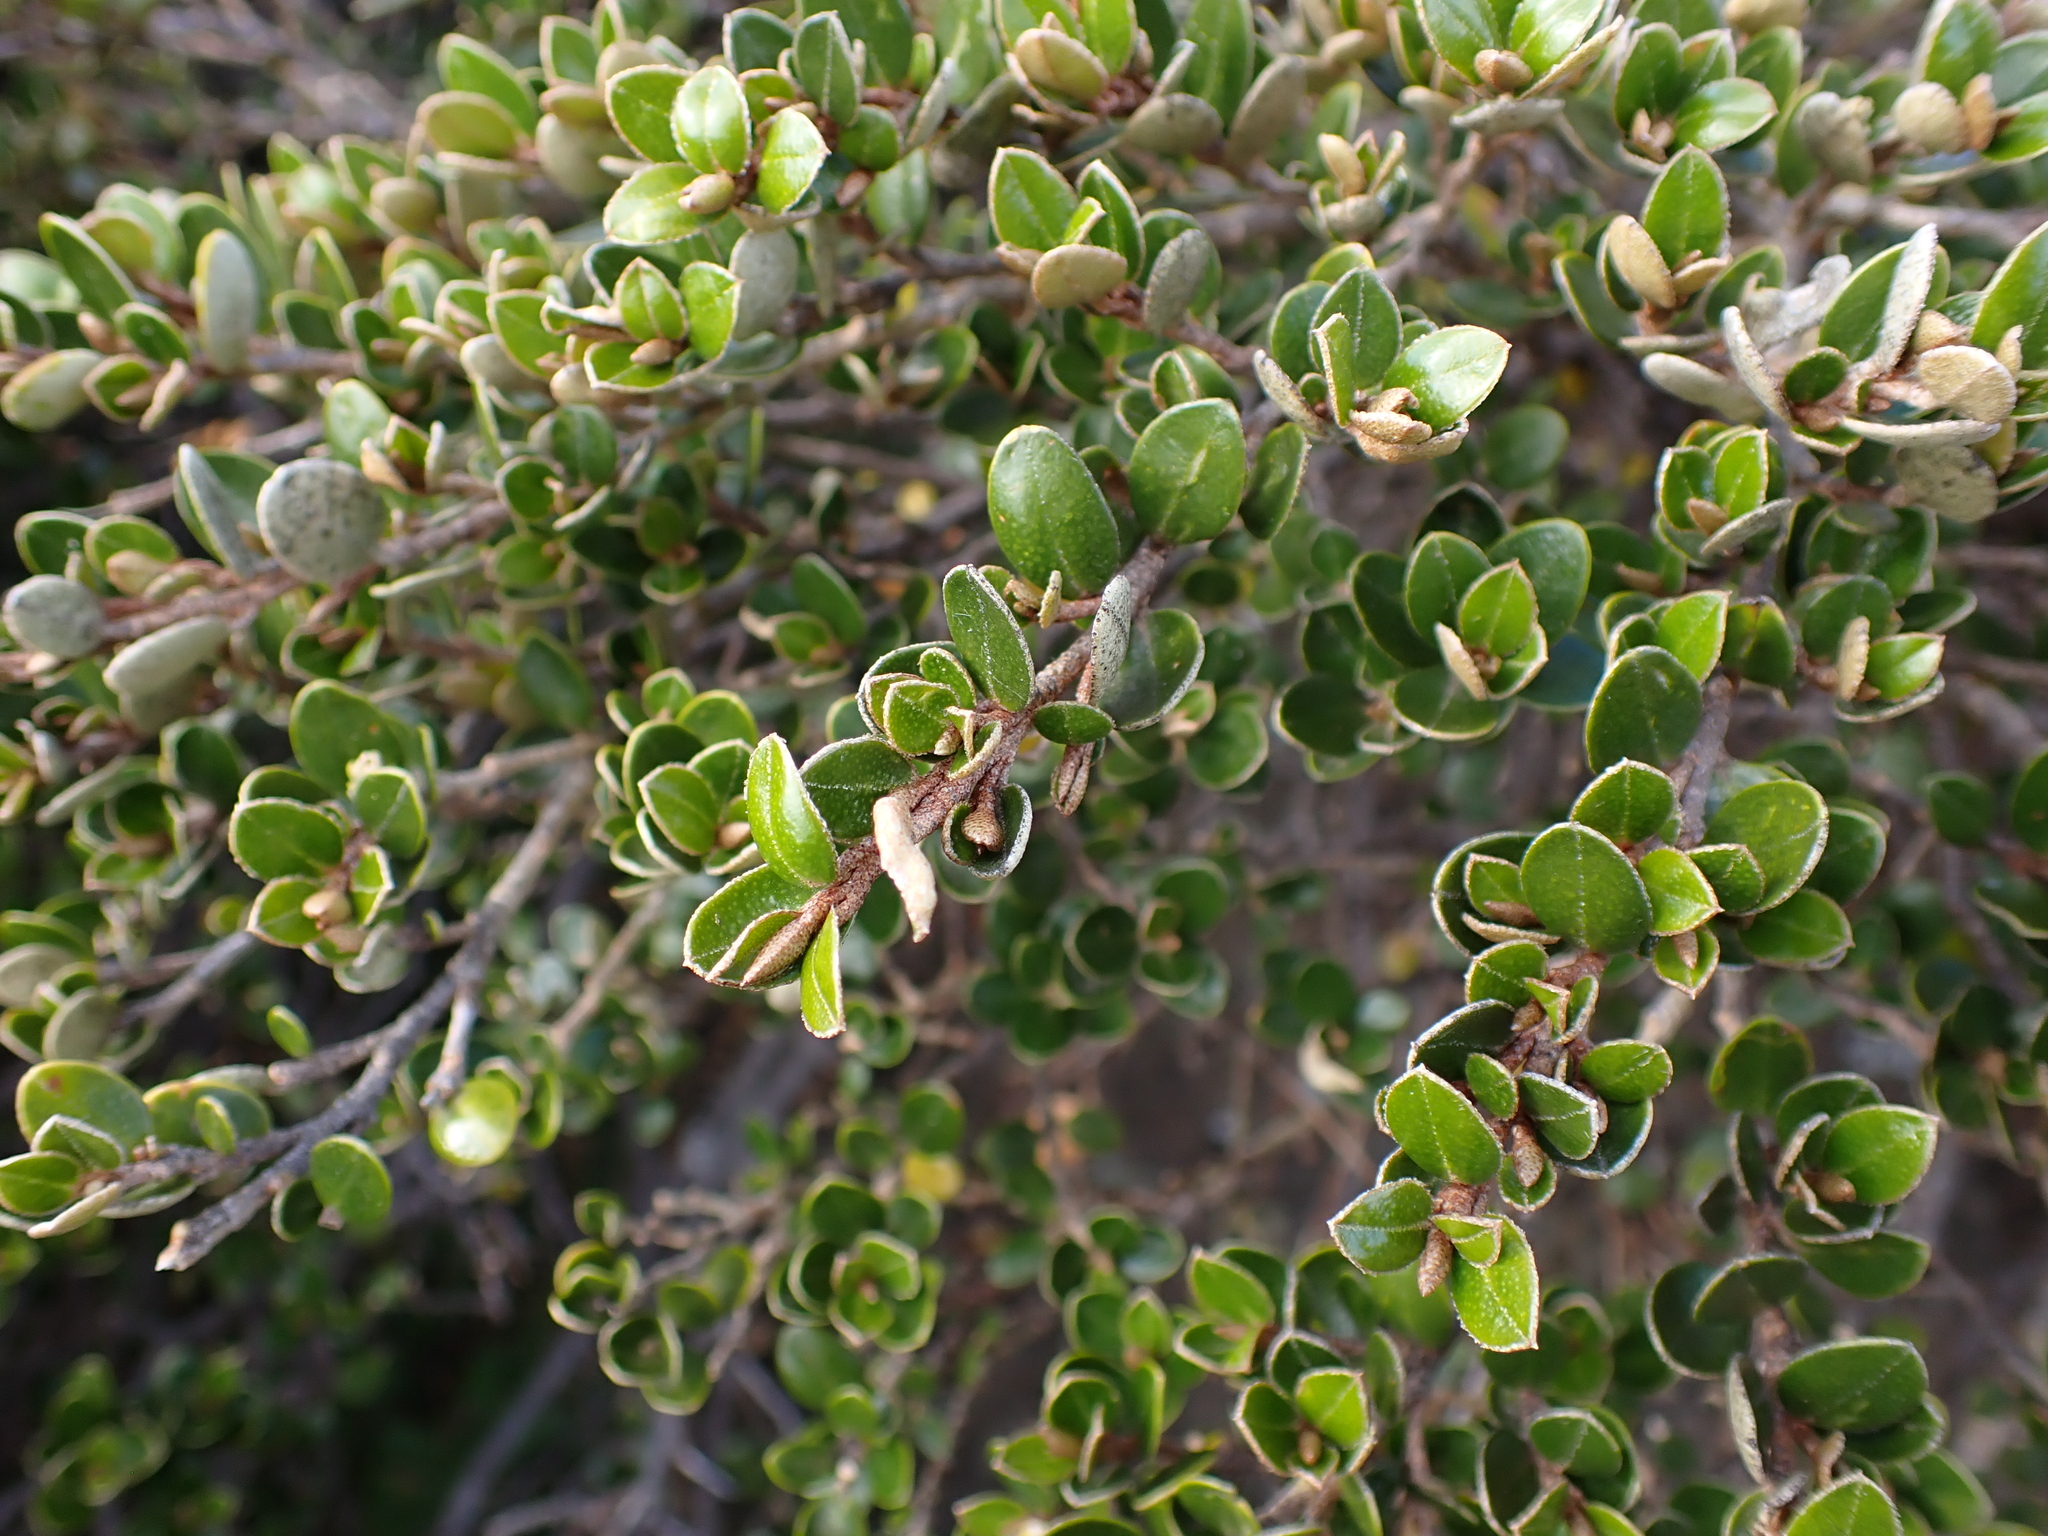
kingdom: Plantae
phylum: Tracheophyta
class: Magnoliopsida
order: Sapindales
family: Rutaceae
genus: Nematolepis
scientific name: Nematolepis ovatifolia
